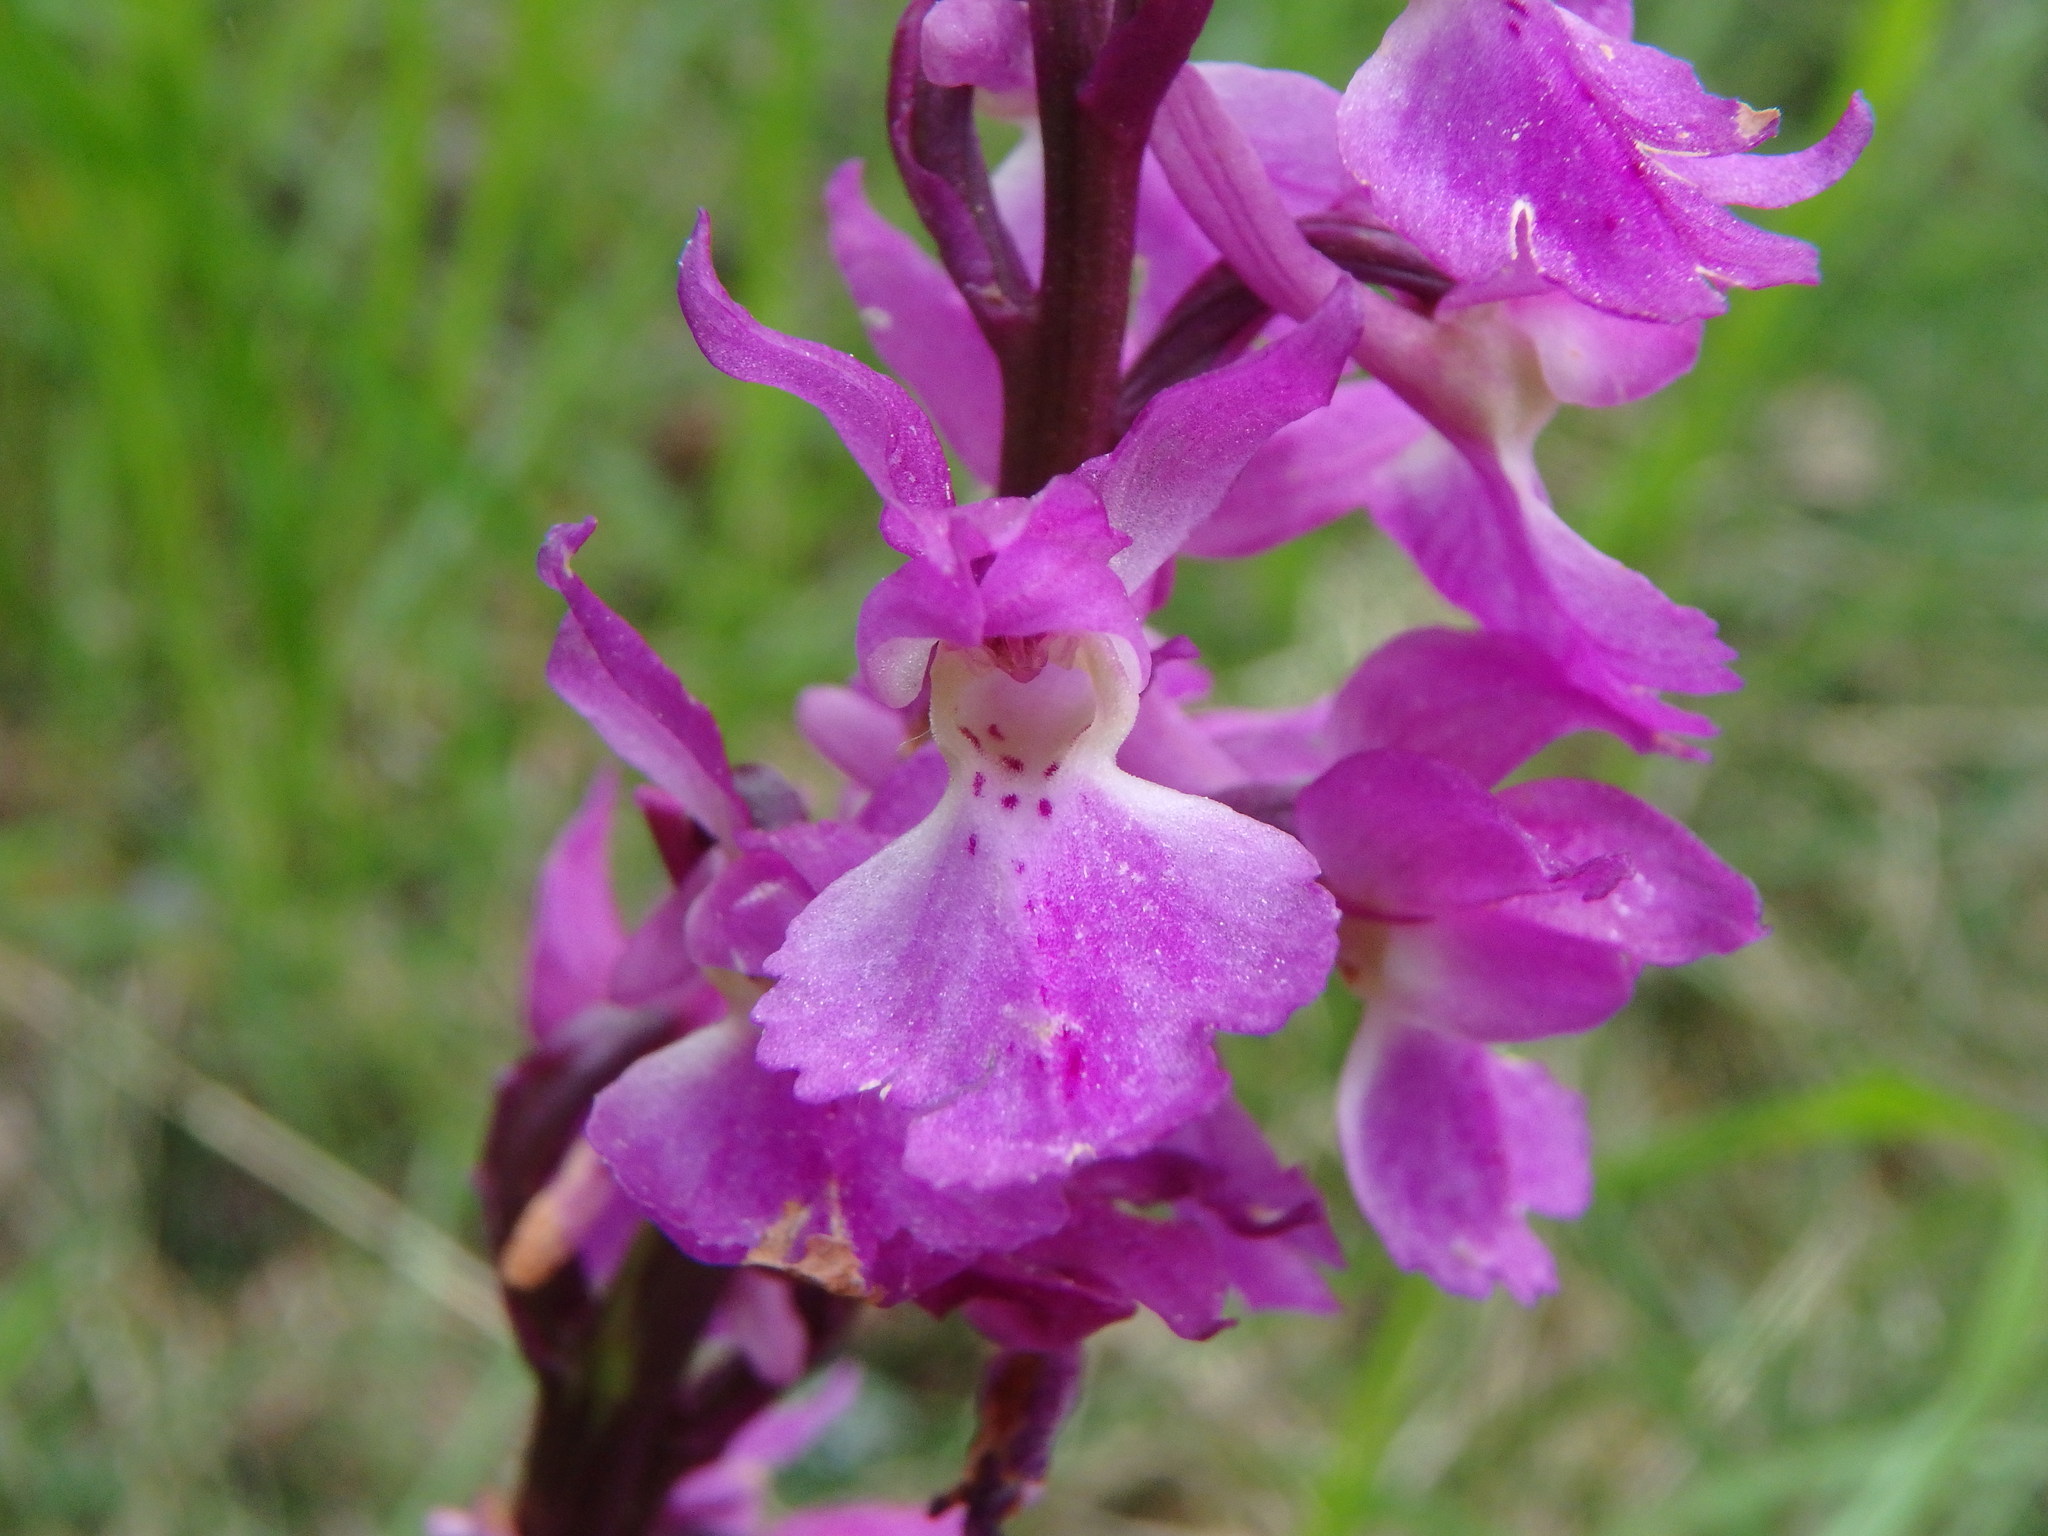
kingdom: Plantae
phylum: Tracheophyta
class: Liliopsida
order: Asparagales
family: Orchidaceae
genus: Orchis
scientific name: Orchis mascula
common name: Early-purple orchid
